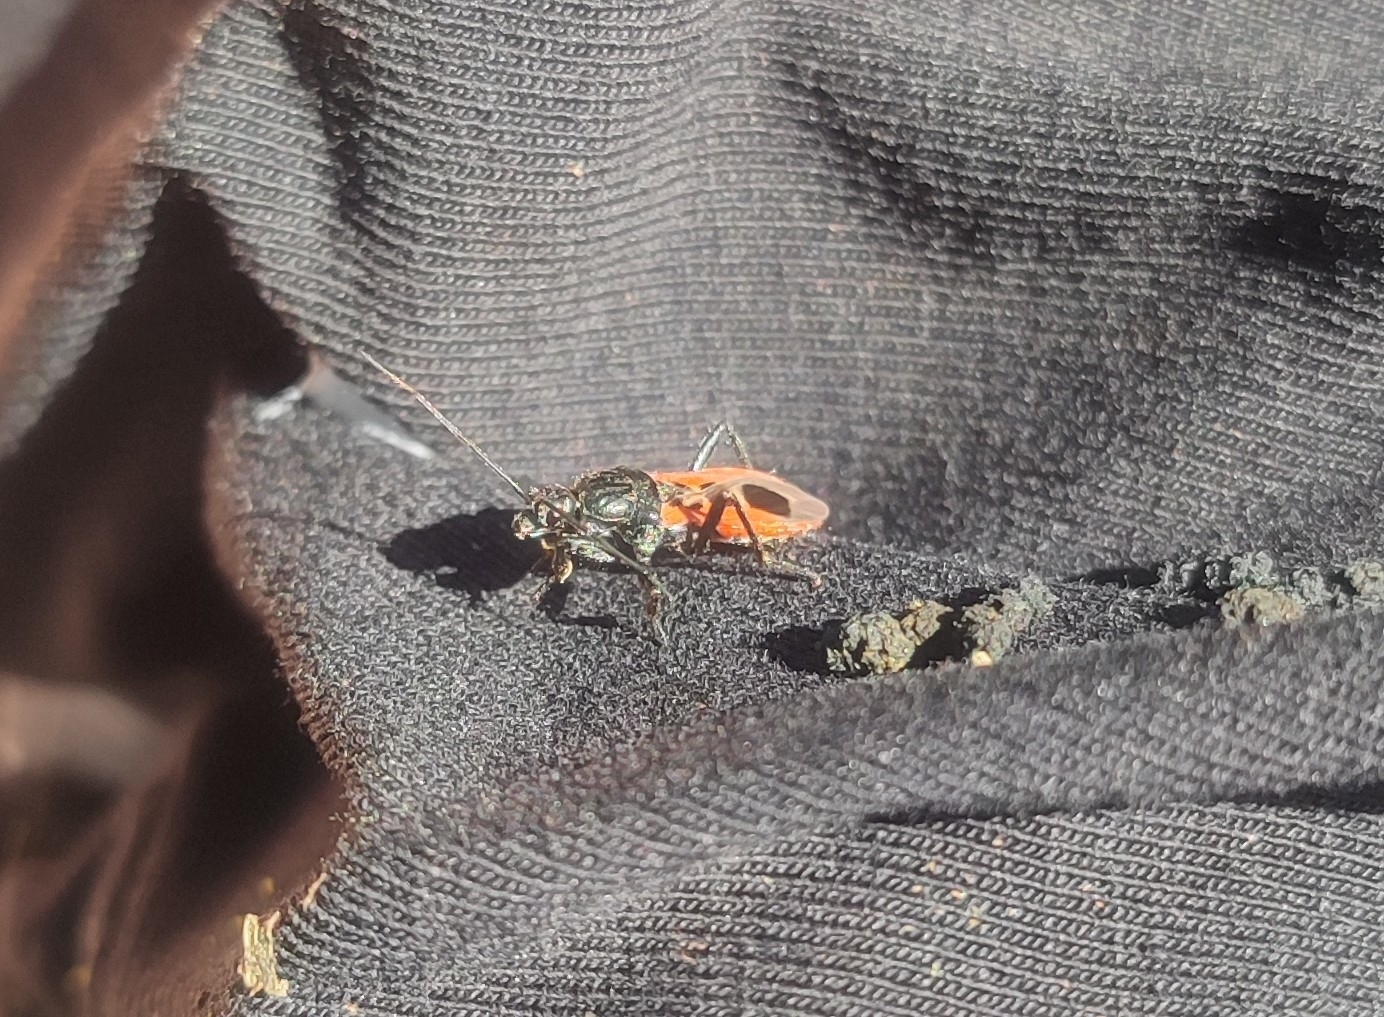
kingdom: Animalia
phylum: Arthropoda
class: Insecta
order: Hemiptera
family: Reduviidae
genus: Peirates
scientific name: Peirates stridulus
